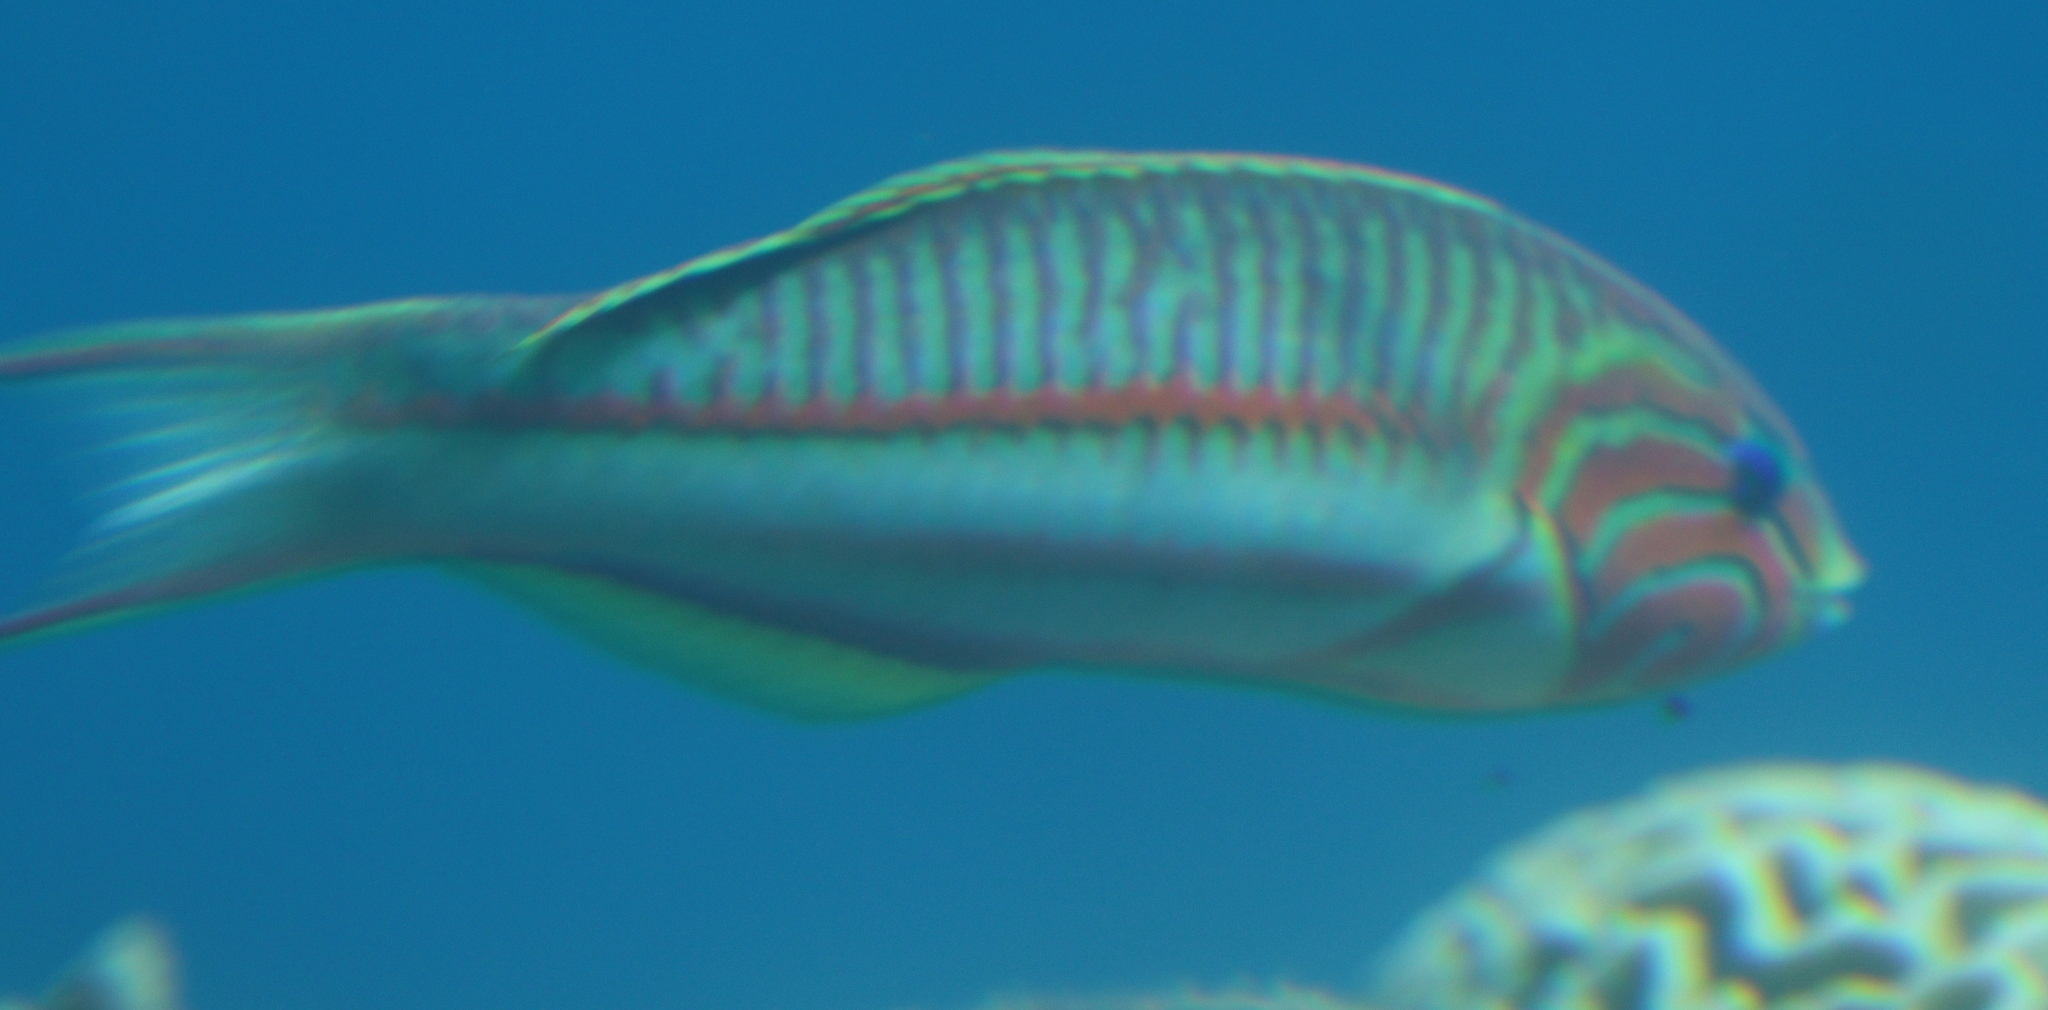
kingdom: Animalia
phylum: Chordata
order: Perciformes
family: Labridae
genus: Thalassoma
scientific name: Thalassoma rueppellii
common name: Klunzinger's wrasse
